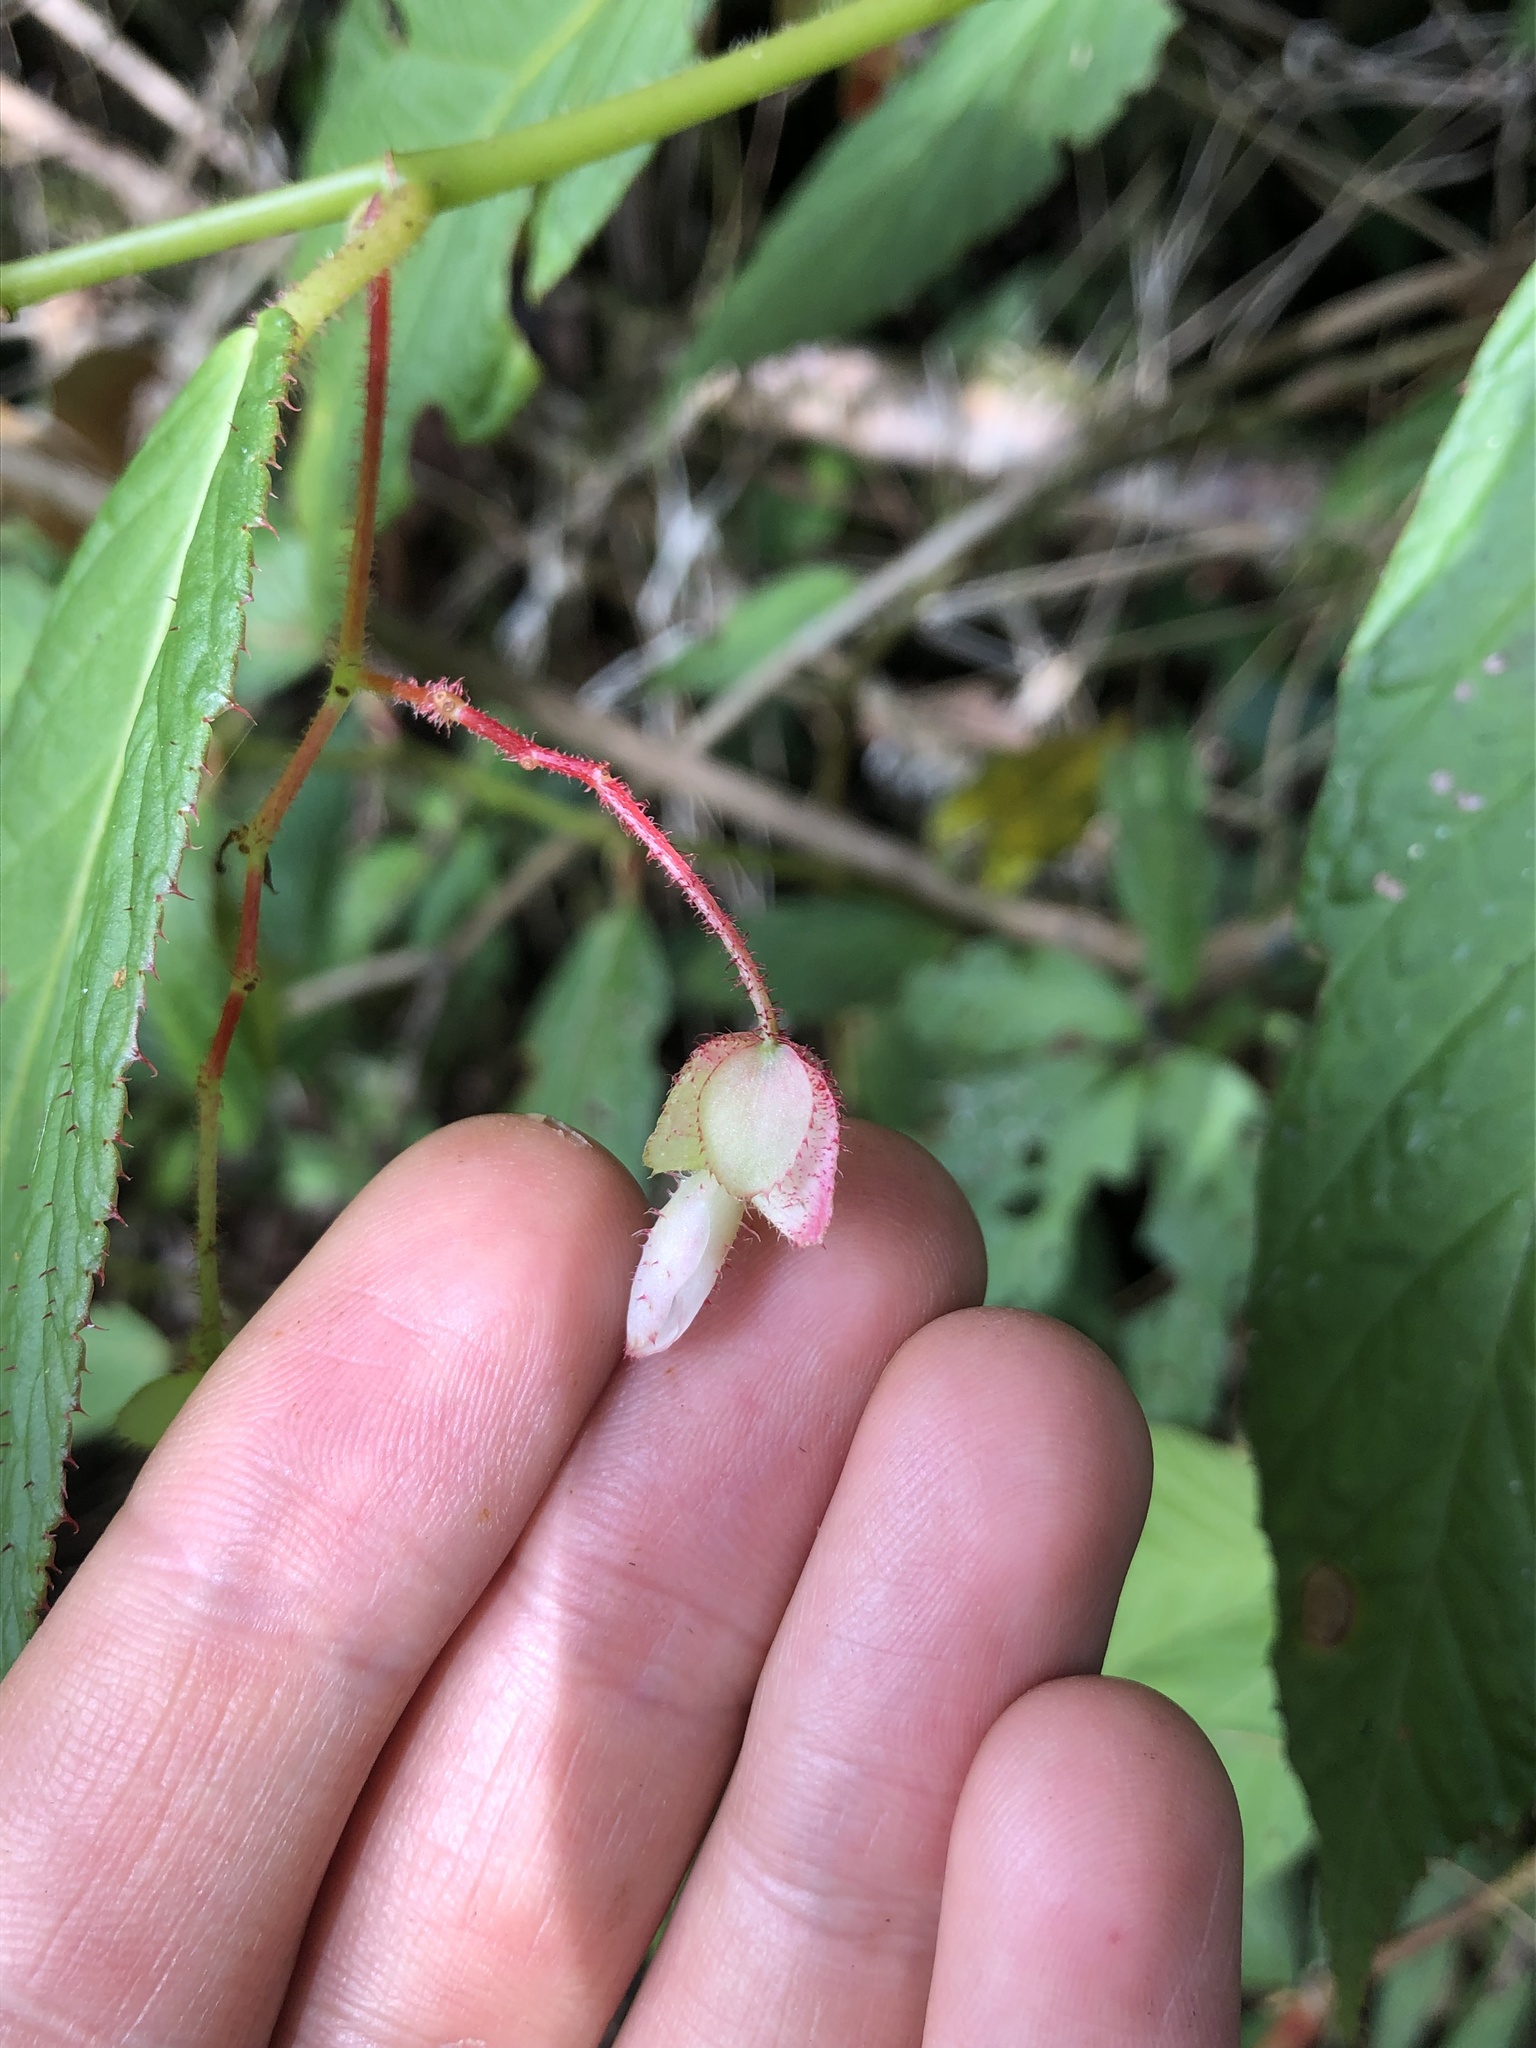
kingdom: Plantae
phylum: Tracheophyta
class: Magnoliopsida
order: Cucurbitales
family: Begoniaceae
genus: Begonia
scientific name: Begonia dugandiana
